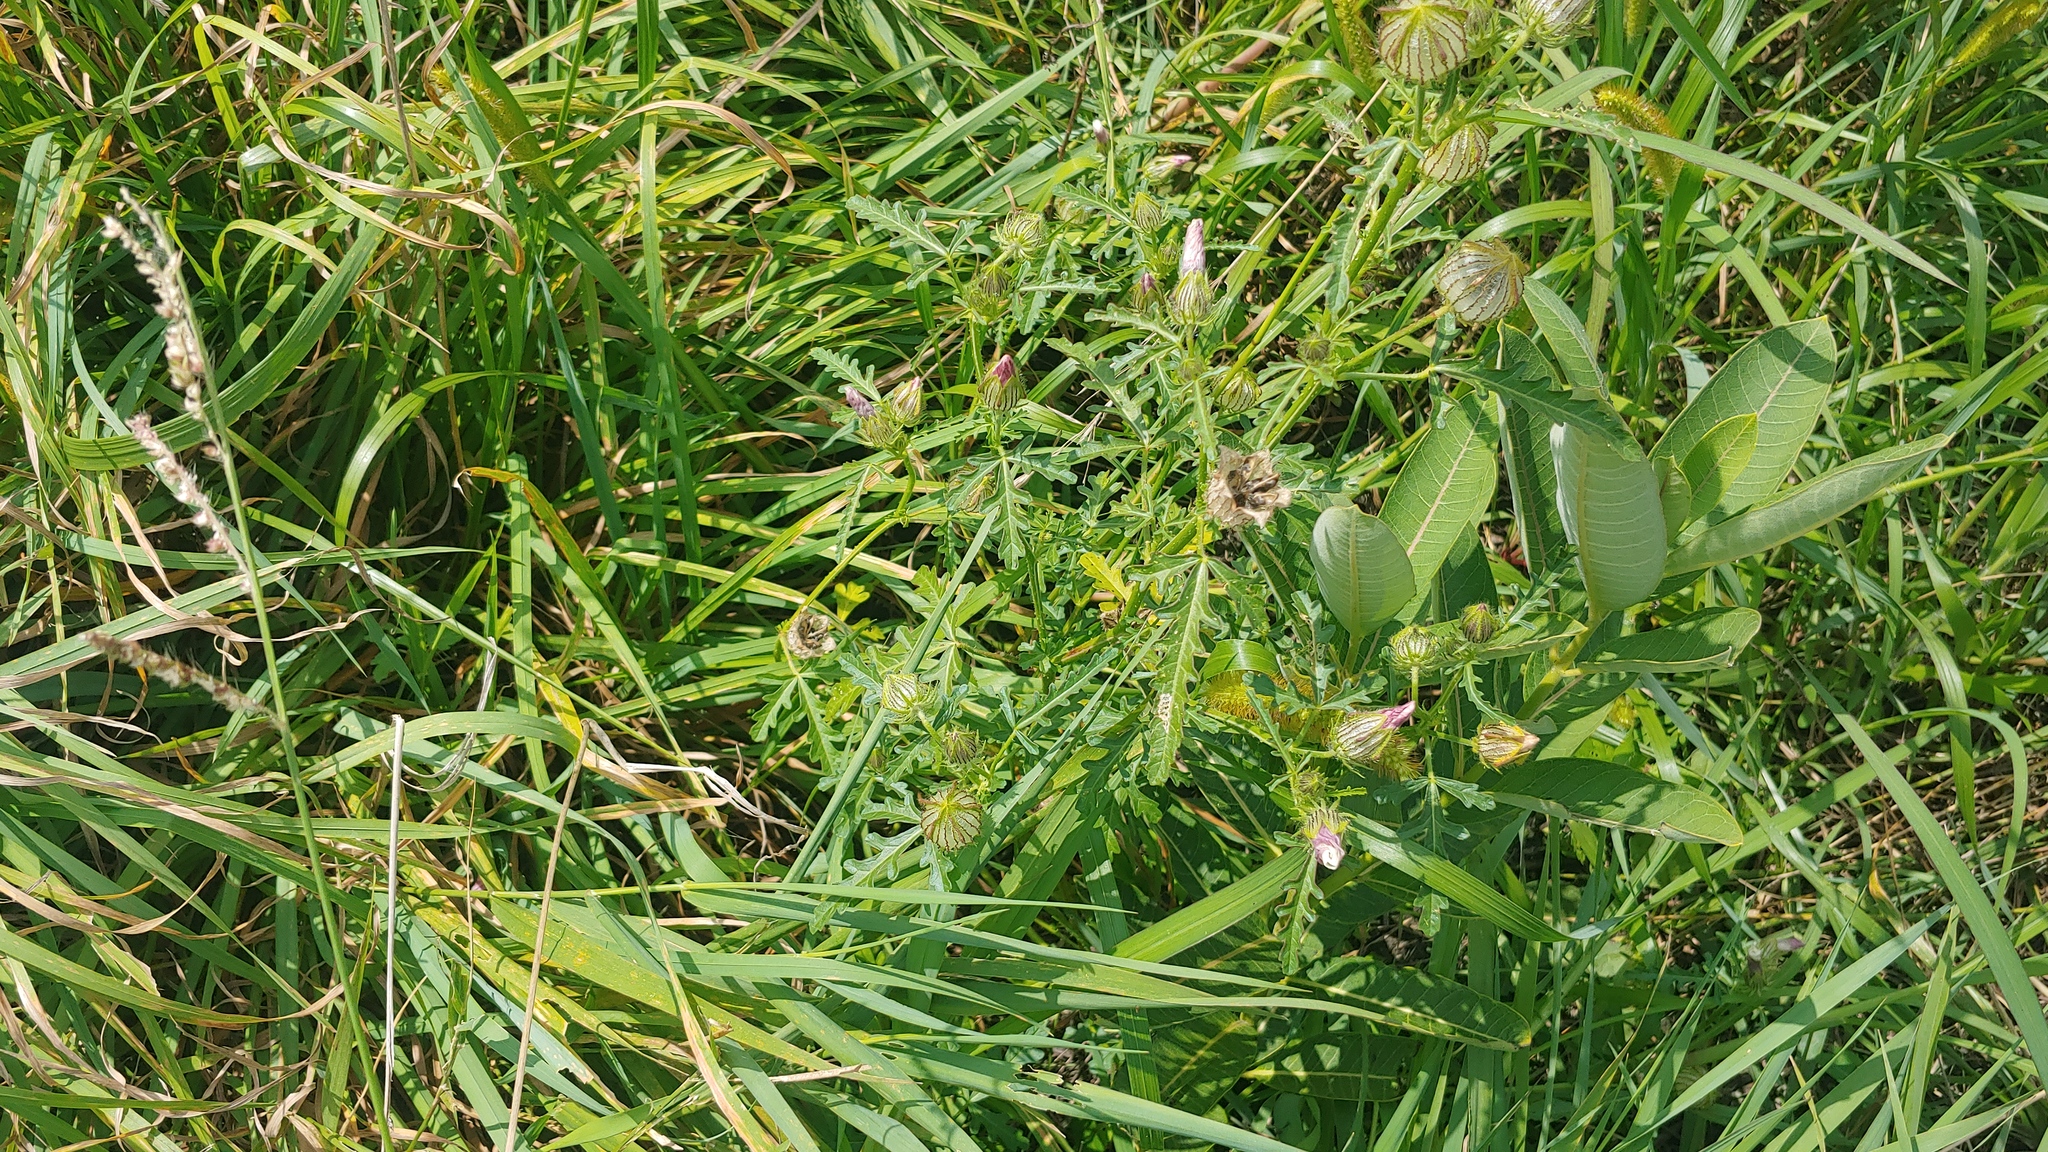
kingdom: Plantae
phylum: Tracheophyta
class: Magnoliopsida
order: Malvales
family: Malvaceae
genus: Hibiscus
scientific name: Hibiscus trionum
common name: Bladder ketmia
